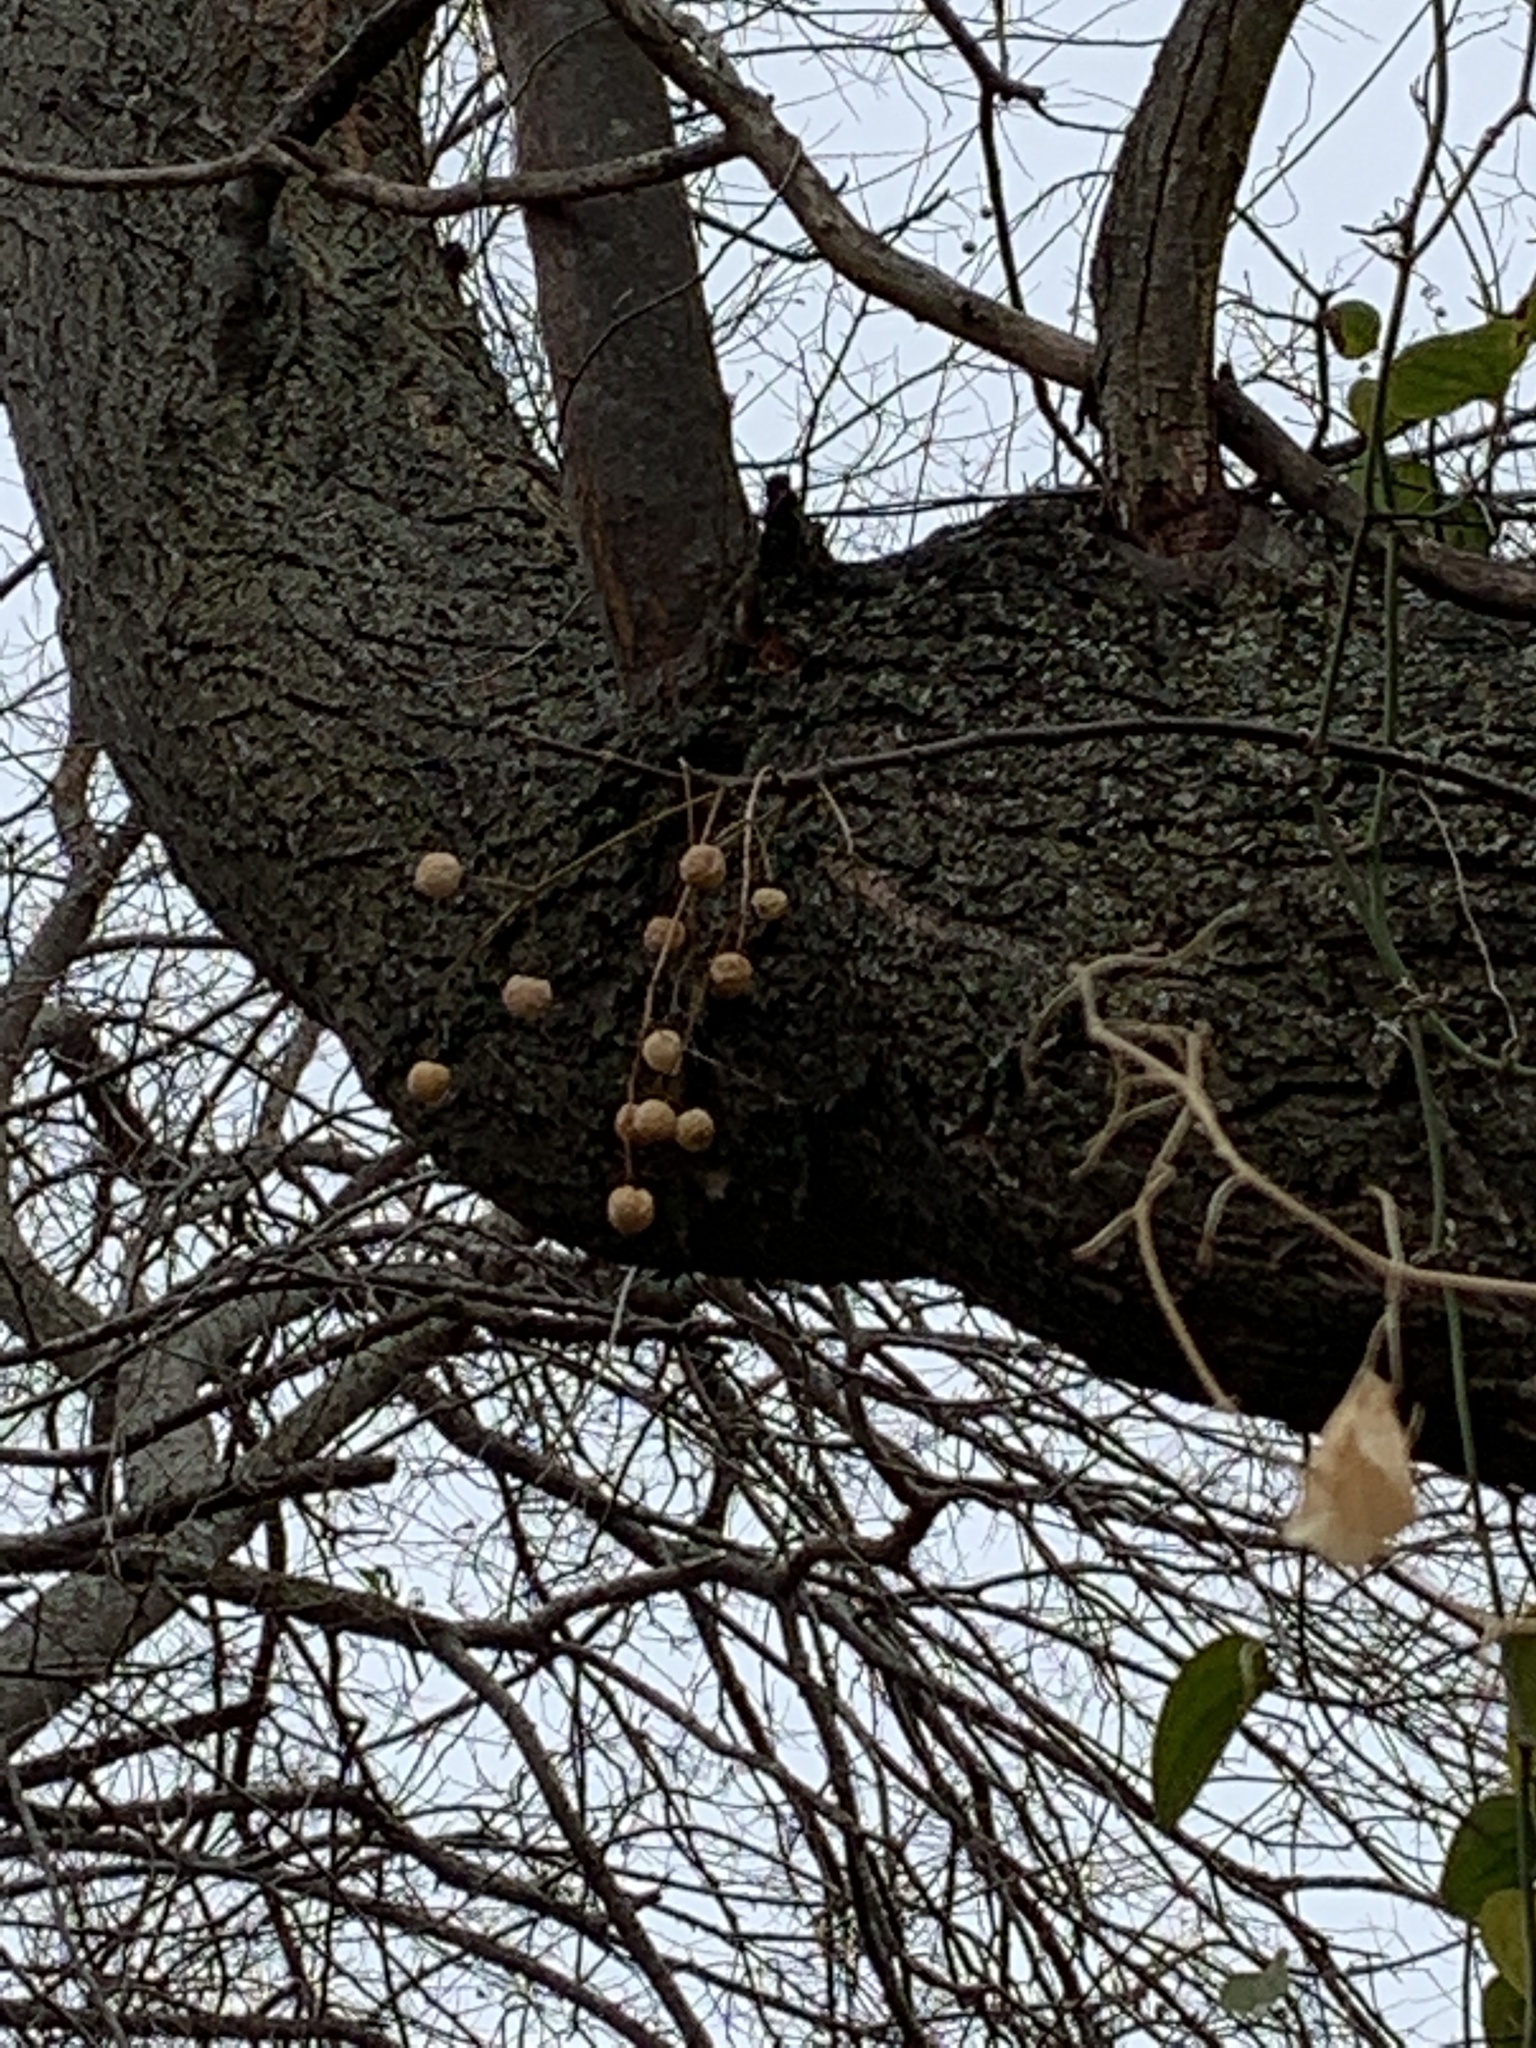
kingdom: Plantae
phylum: Tracheophyta
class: Magnoliopsida
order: Sapindales
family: Meliaceae
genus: Melia
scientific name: Melia azedarach
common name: Chinaberrytree
